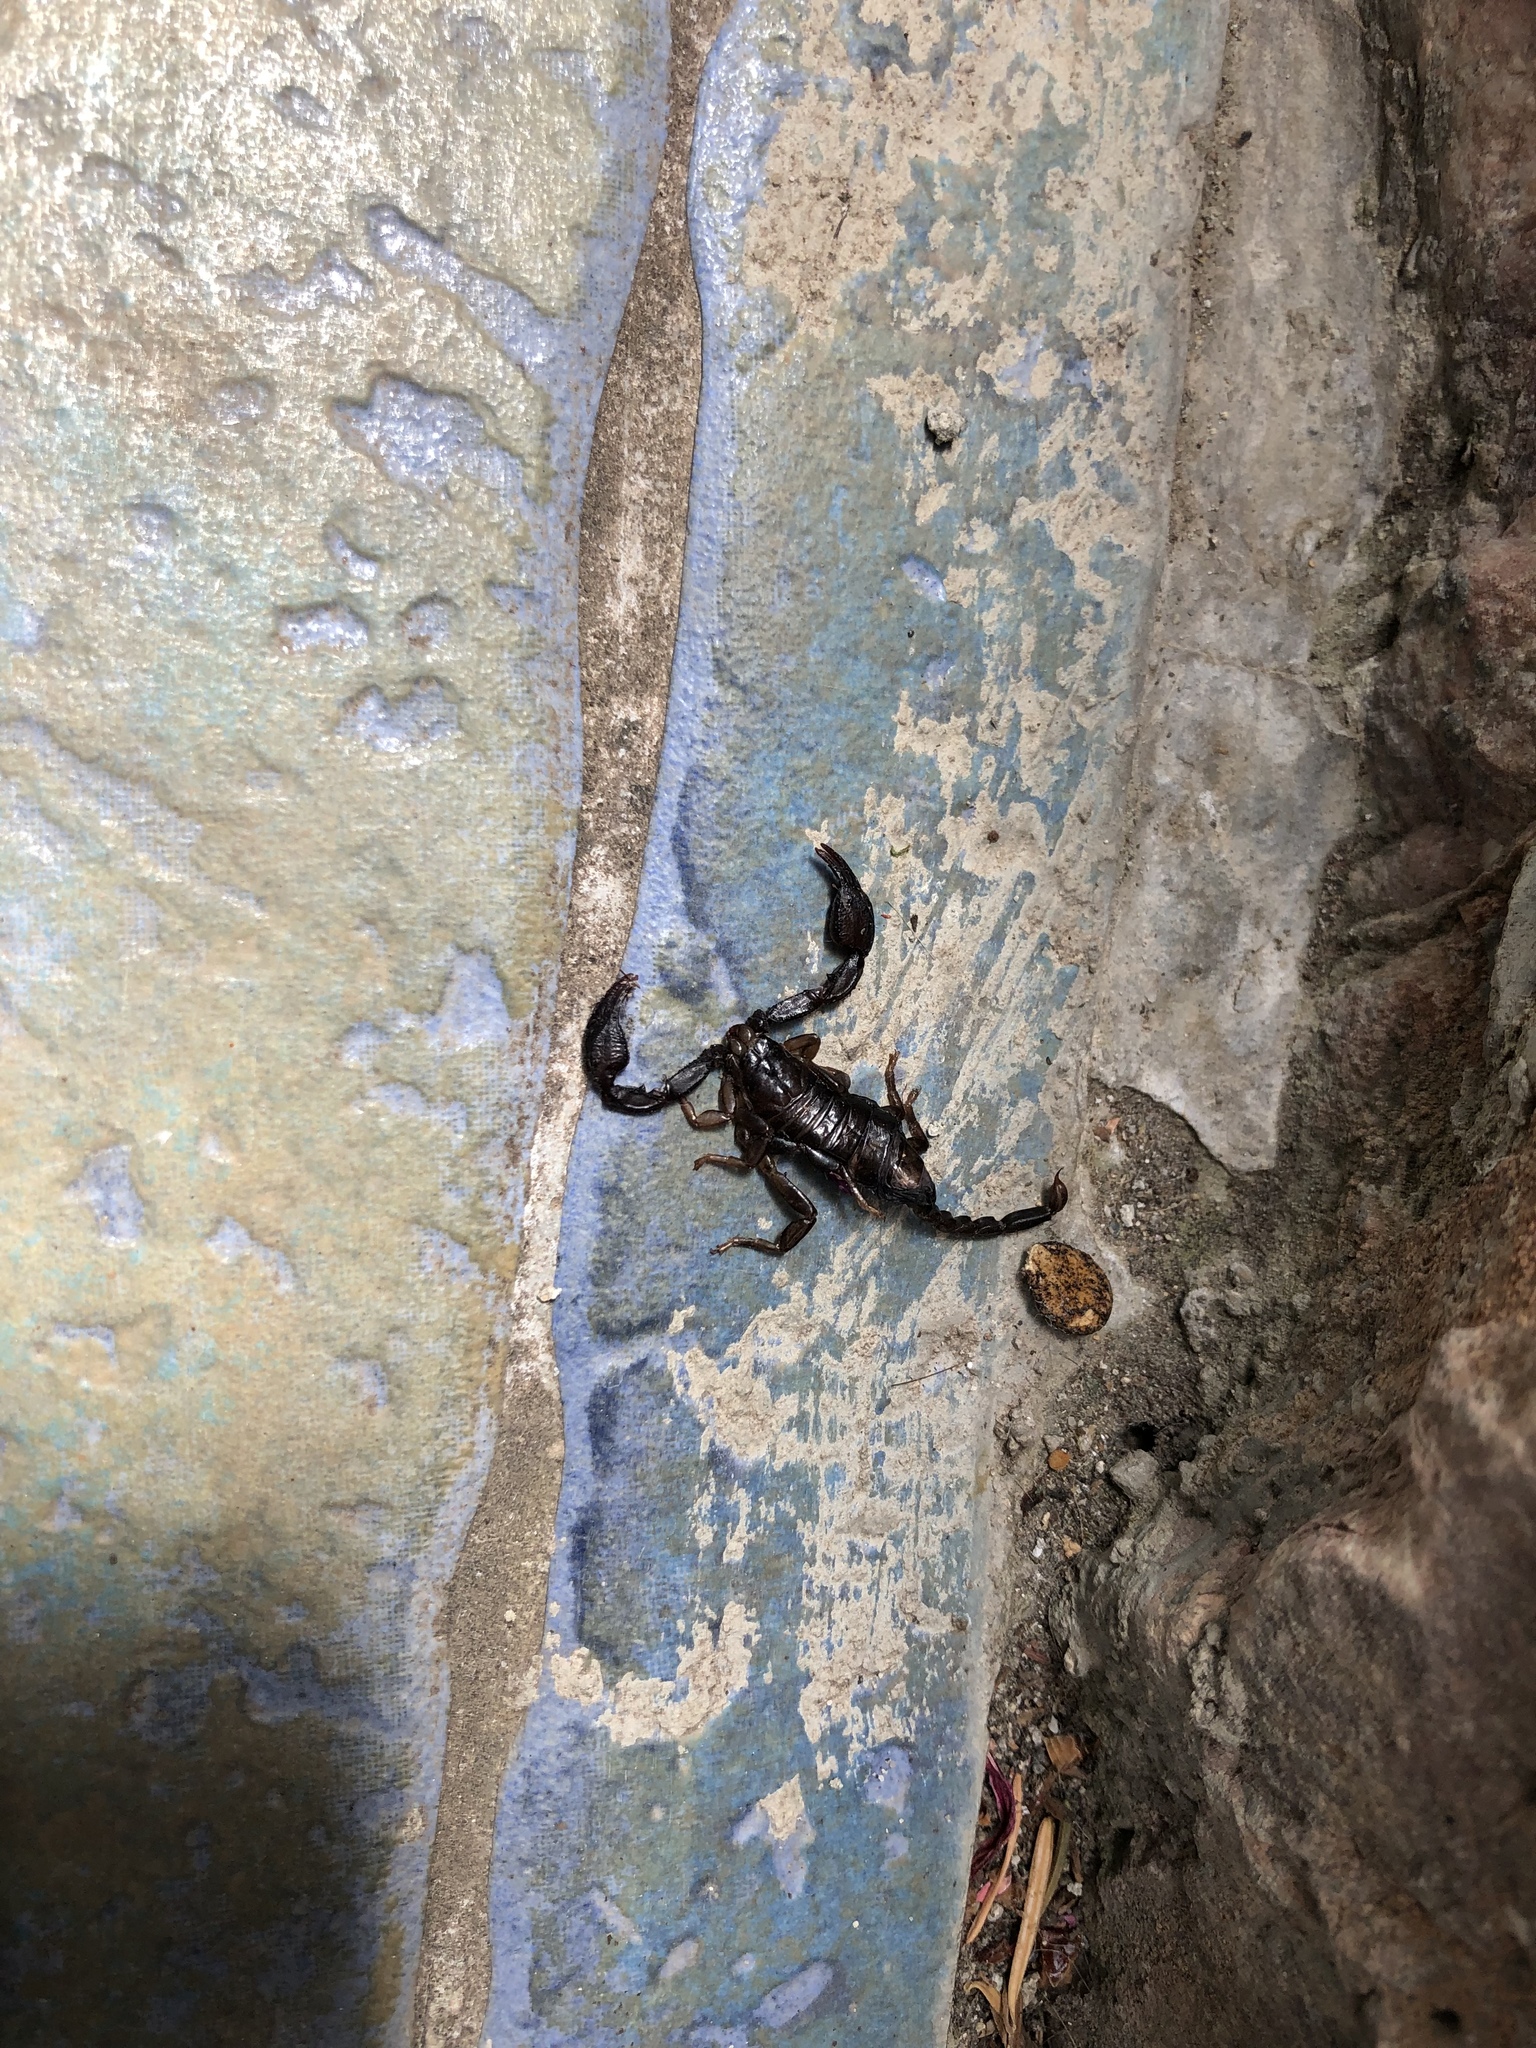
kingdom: Animalia
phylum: Arthropoda
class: Arachnida
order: Scorpiones
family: Euscorpiidae
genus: Euscorpius
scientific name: Euscorpius hadzii
